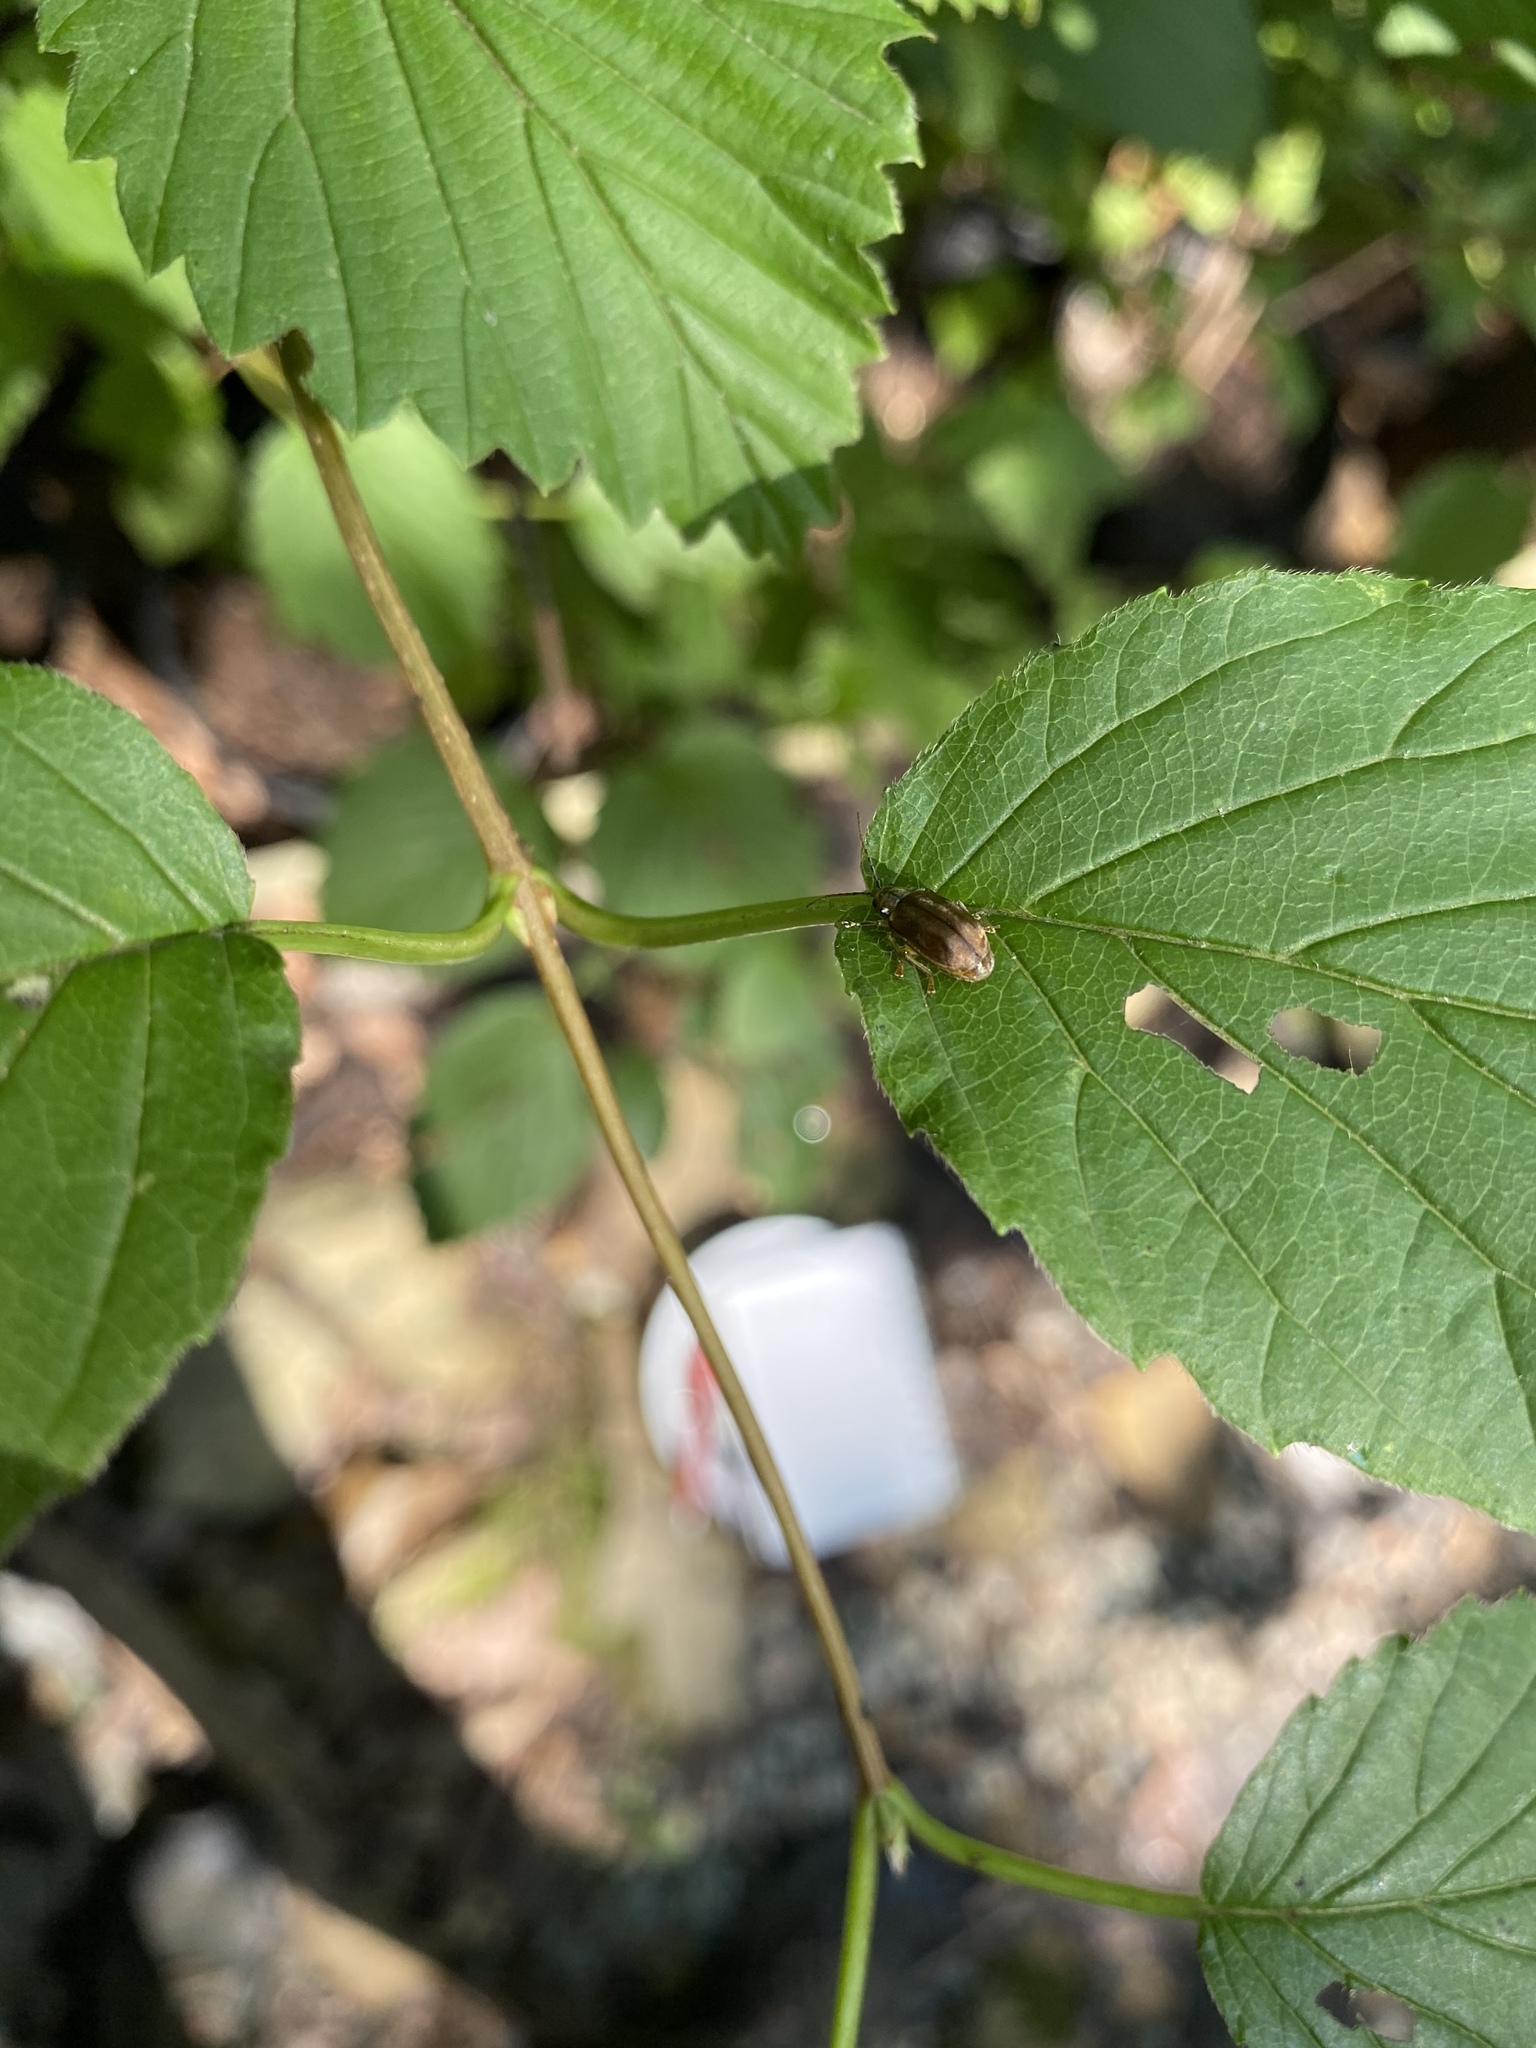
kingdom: Animalia
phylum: Arthropoda
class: Insecta
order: Coleoptera
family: Chrysomelidae
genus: Pyrrhalta
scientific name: Pyrrhalta viburni
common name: Guelder-rose leaf beetle
